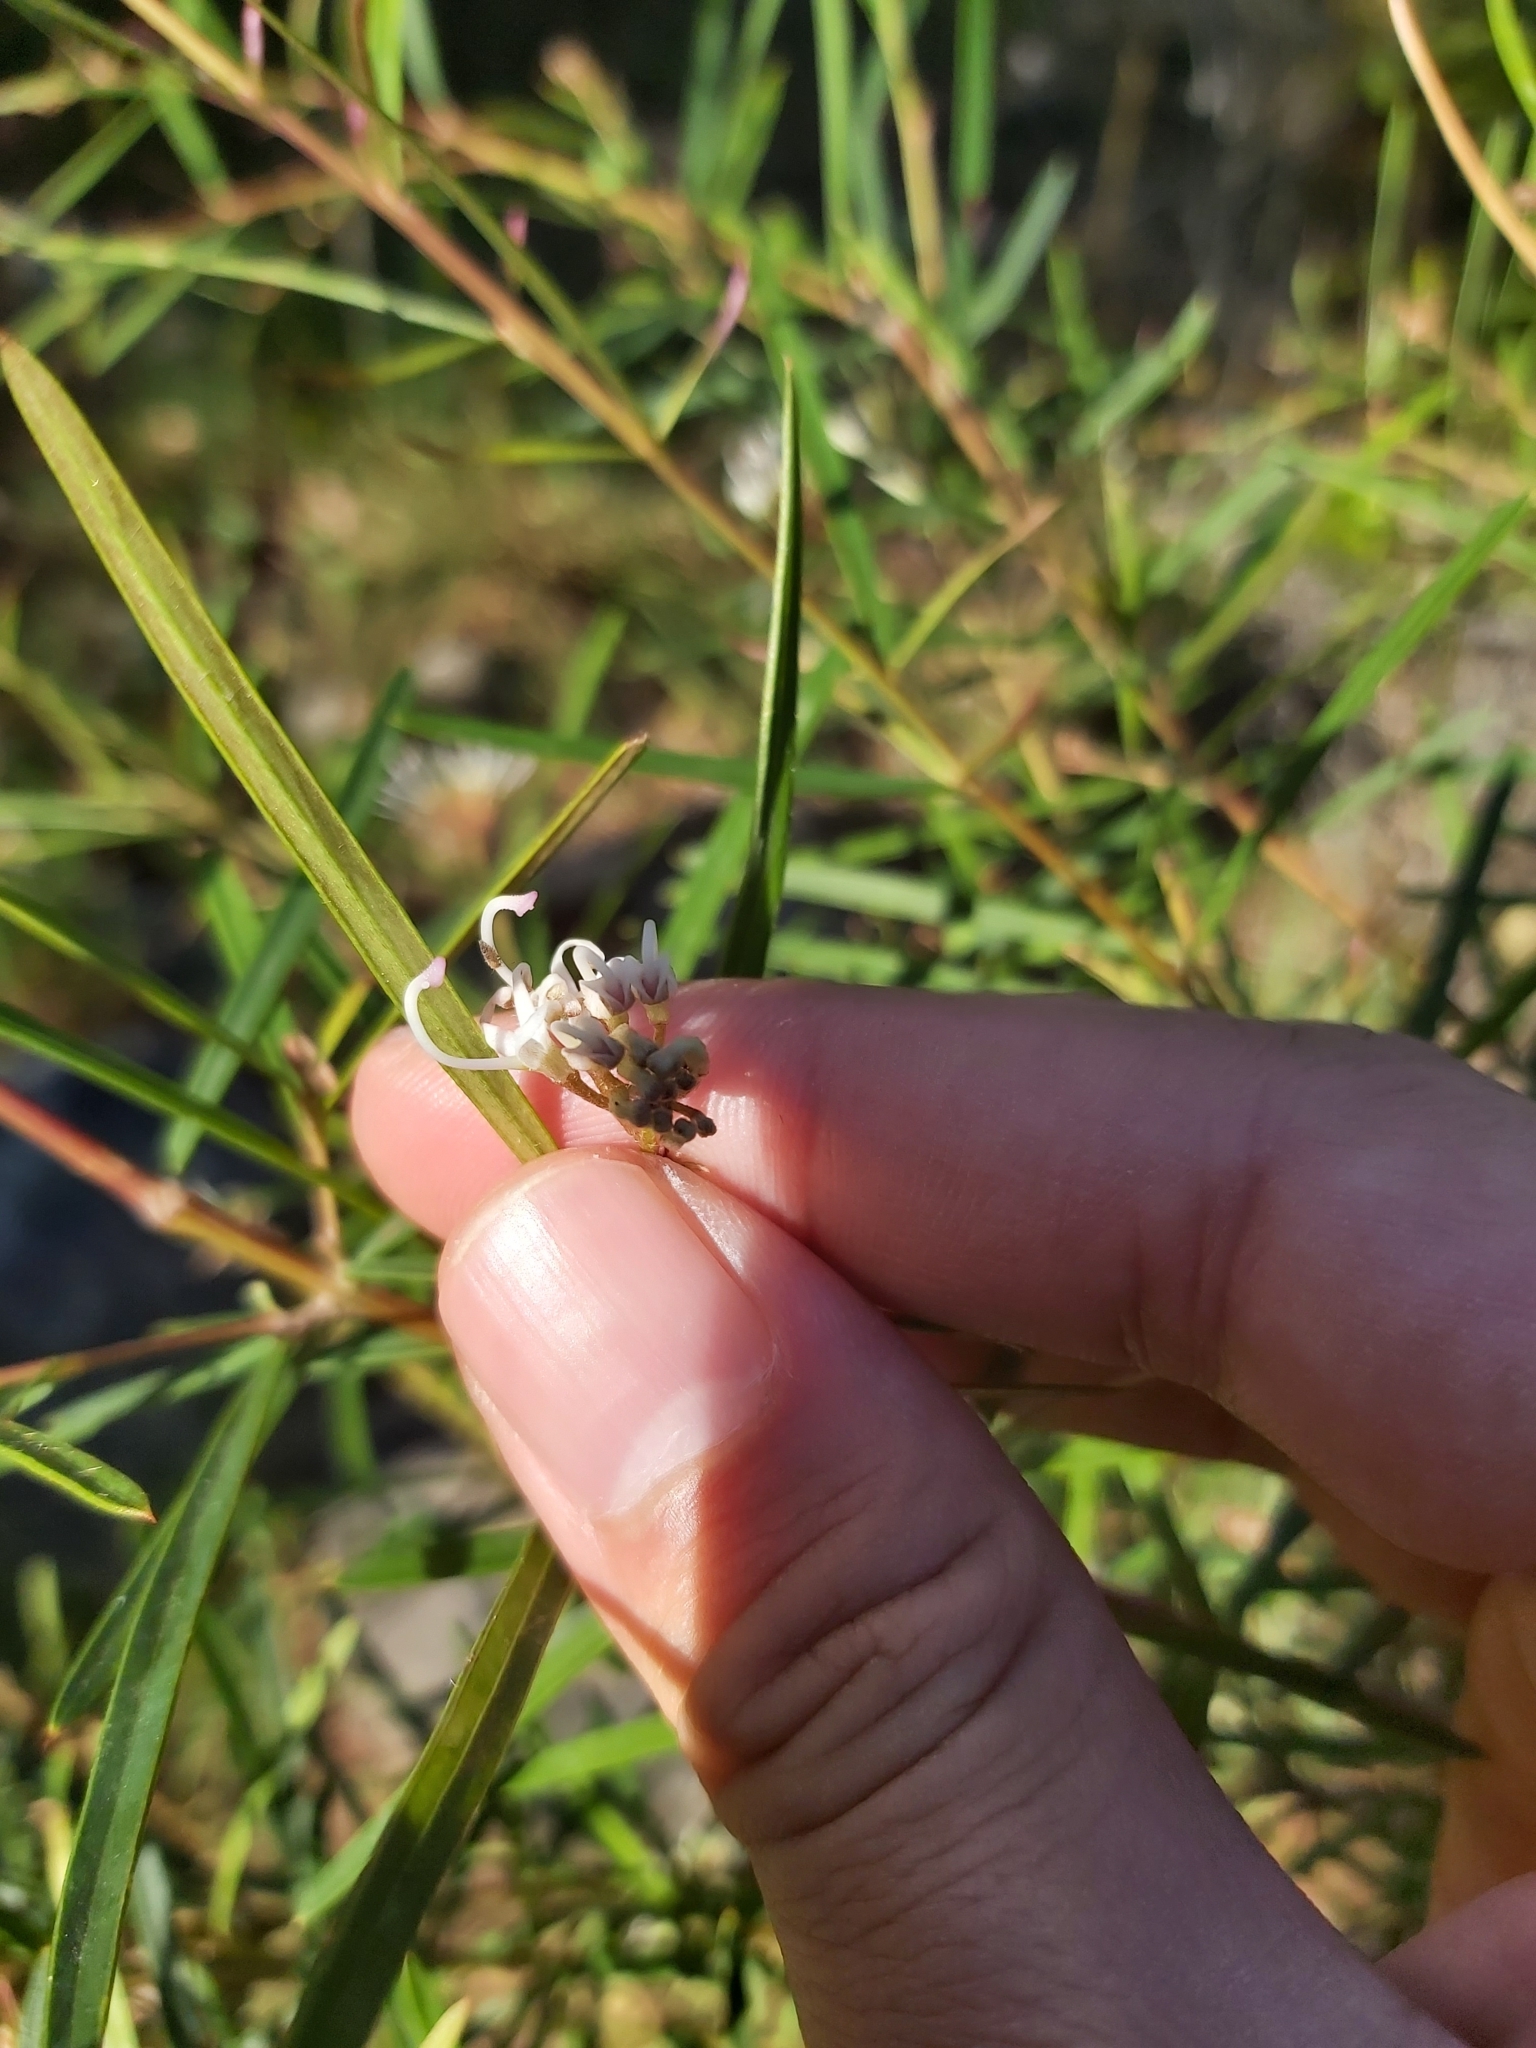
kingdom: Plantae
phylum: Tracheophyta
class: Magnoliopsida
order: Proteales
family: Proteaceae
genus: Grevillea
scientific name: Grevillea linearifolia
